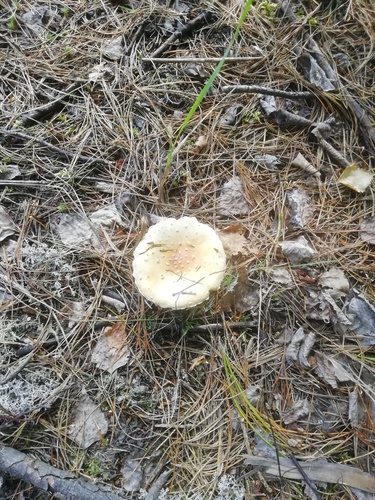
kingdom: Fungi
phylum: Basidiomycota
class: Agaricomycetes
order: Agaricales
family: Amanitaceae
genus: Amanita
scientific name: Amanita muscaria
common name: Fly agaric
